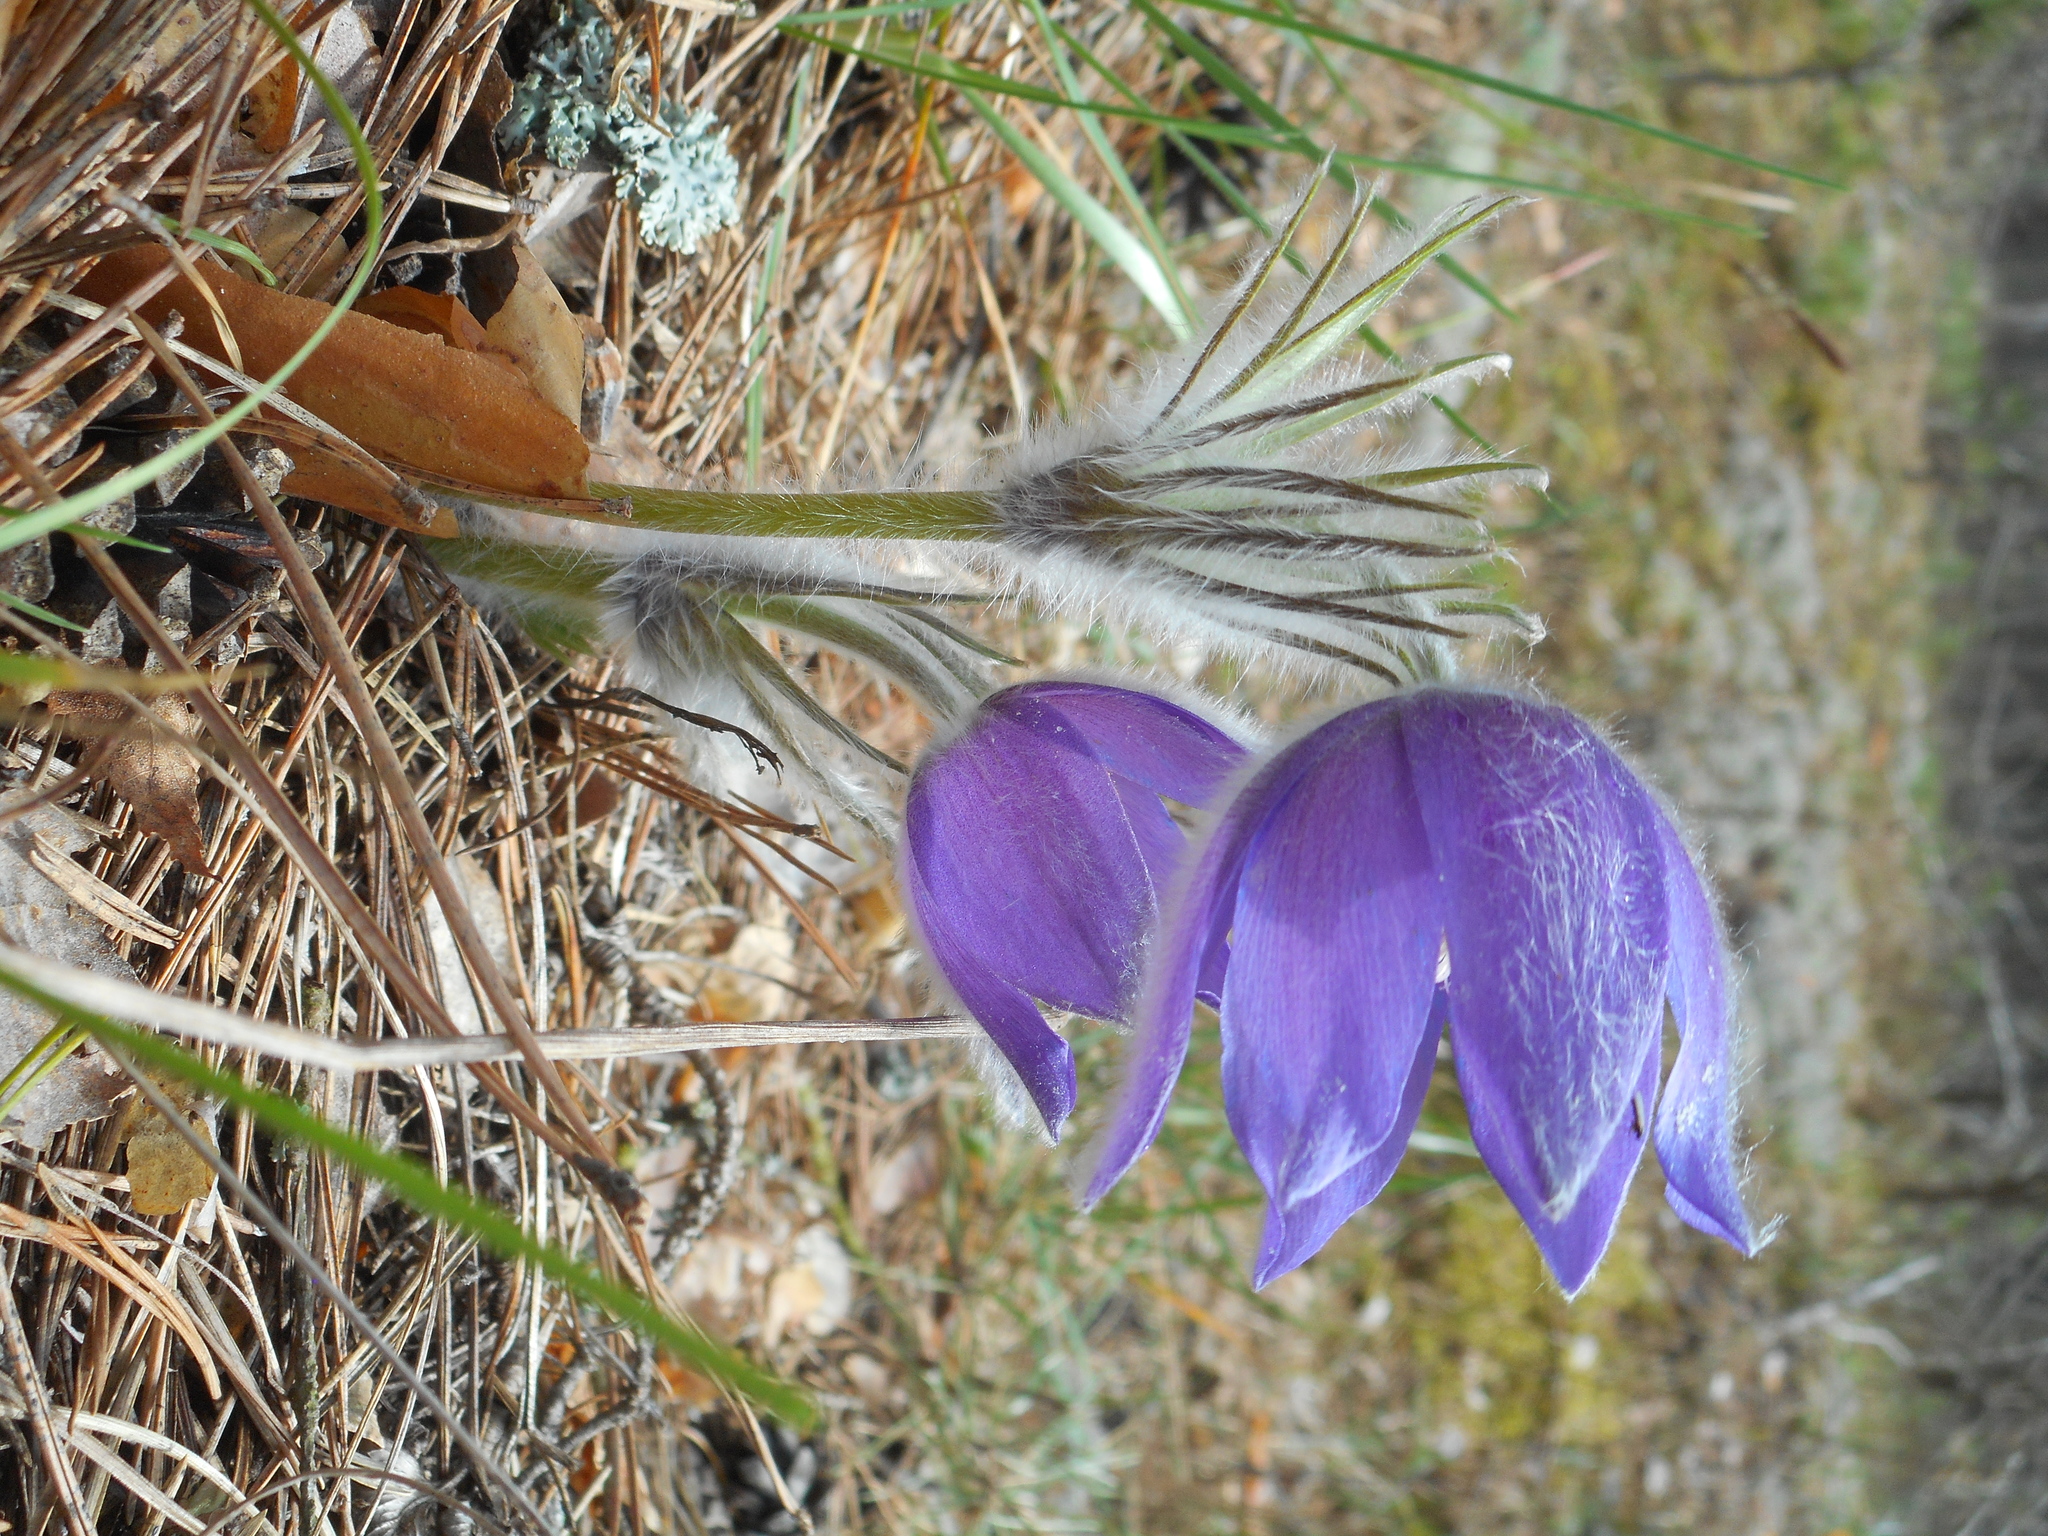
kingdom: Plantae
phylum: Tracheophyta
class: Magnoliopsida
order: Ranunculales
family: Ranunculaceae
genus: Pulsatilla
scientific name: Pulsatilla patens
